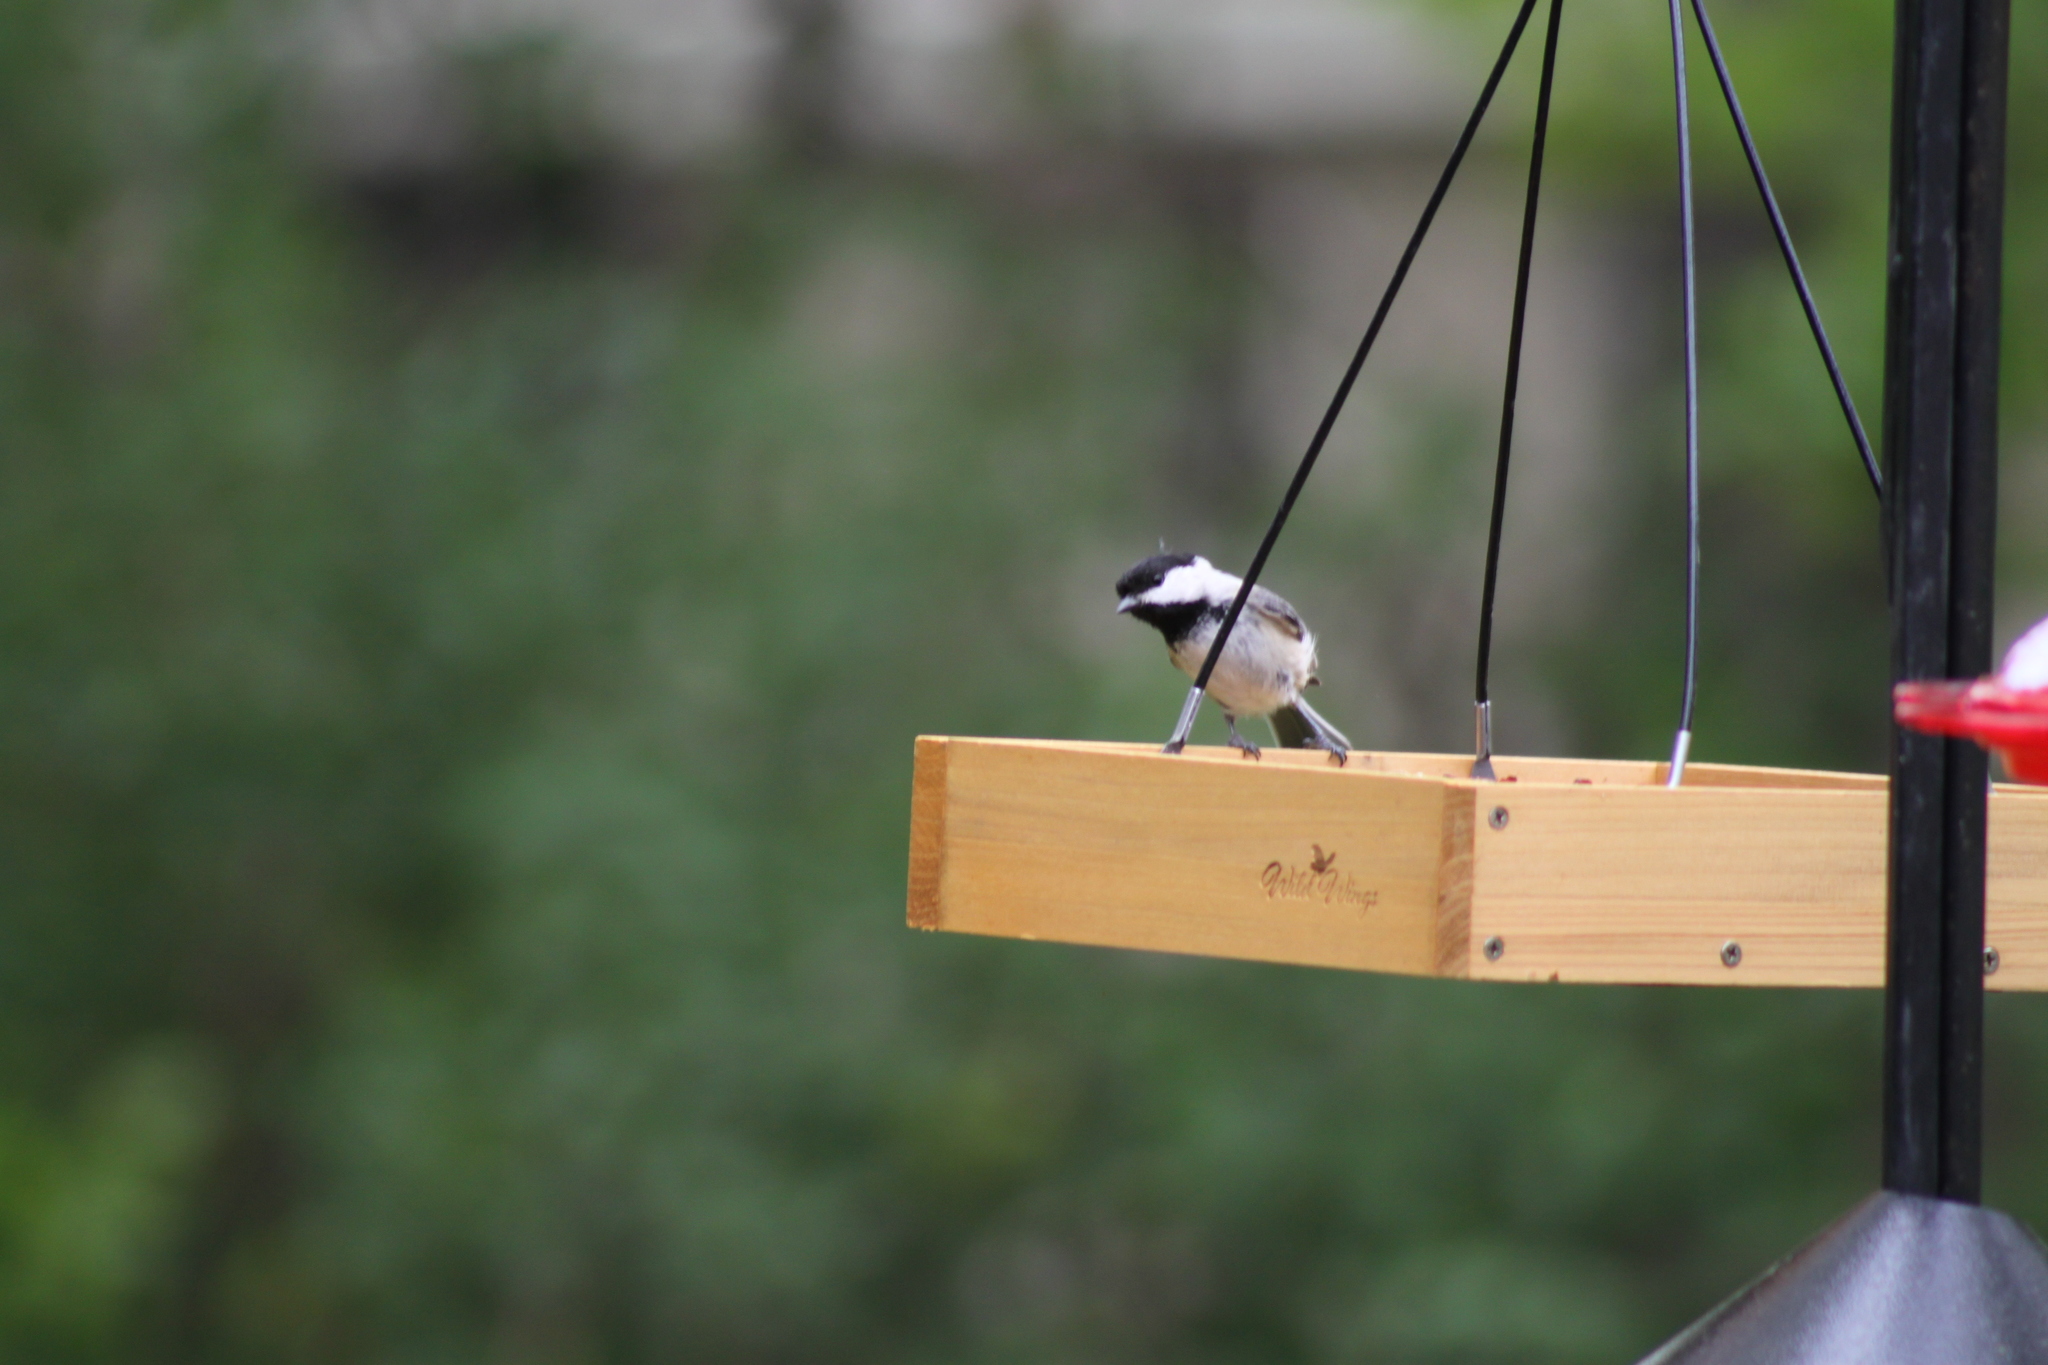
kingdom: Animalia
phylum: Chordata
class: Aves
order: Passeriformes
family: Paridae
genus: Poecile
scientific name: Poecile atricapillus
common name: Black-capped chickadee
